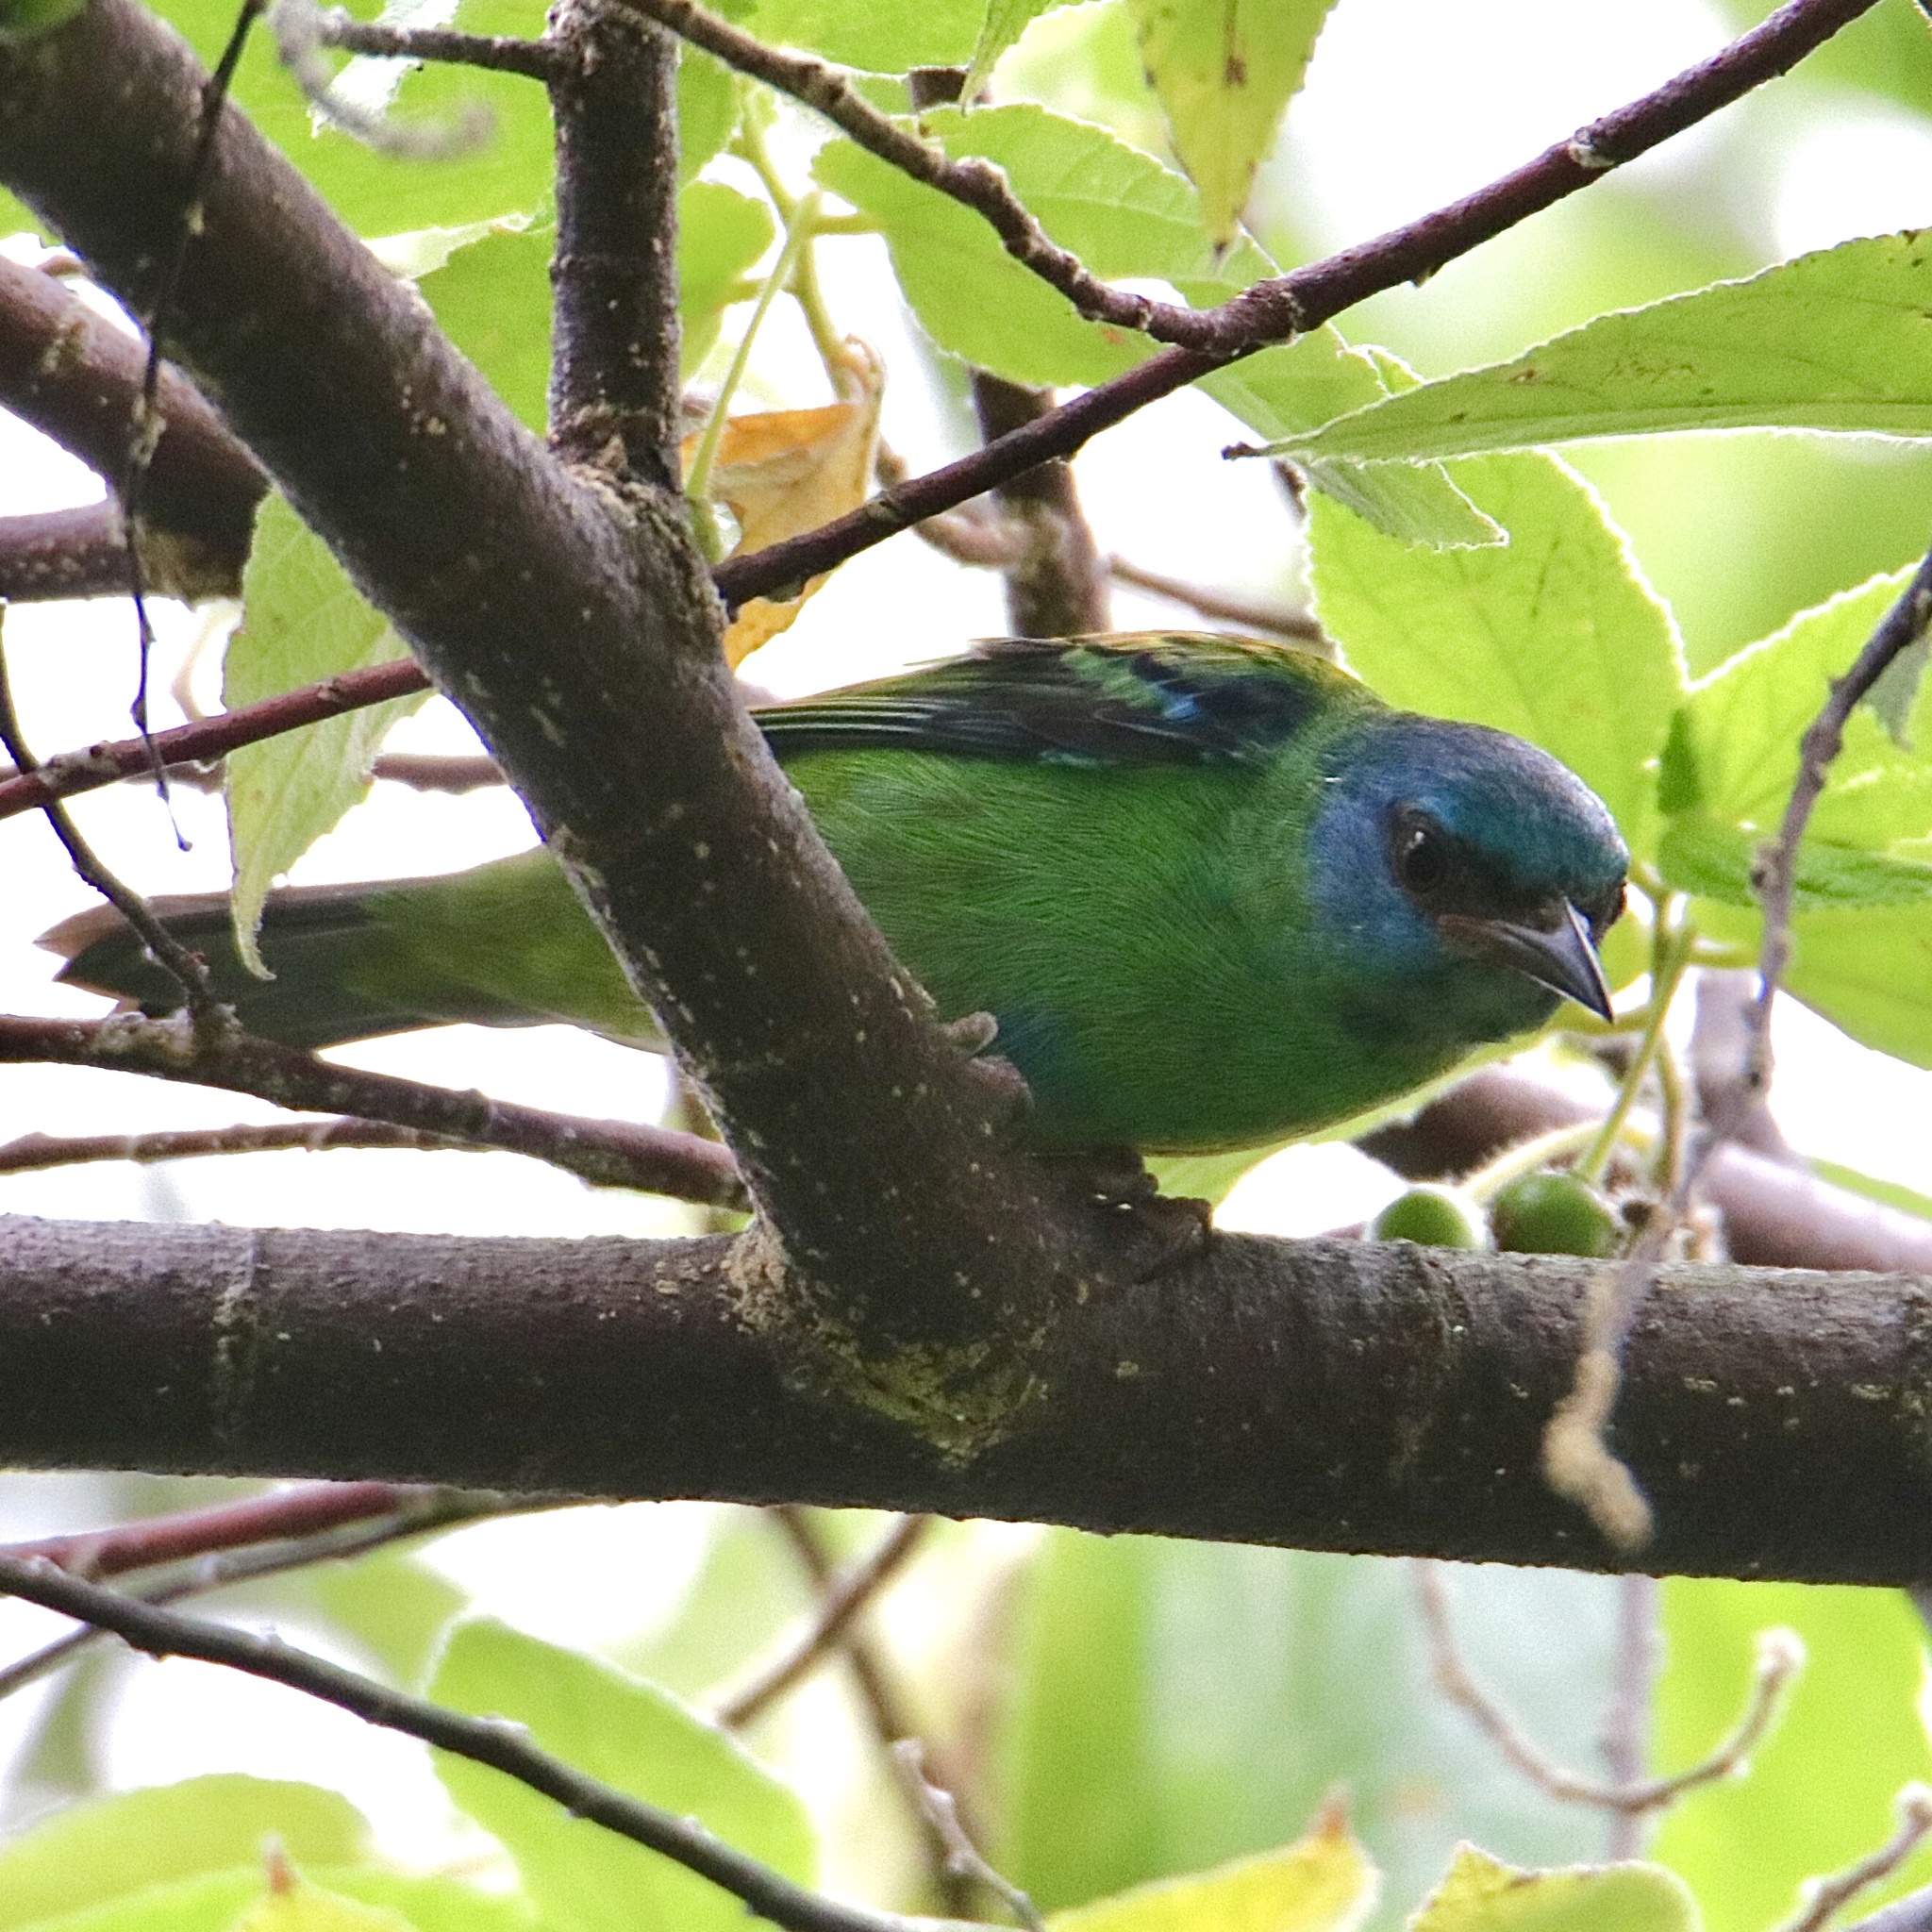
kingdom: Animalia
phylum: Chordata
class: Aves
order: Passeriformes
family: Thraupidae
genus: Dacnis
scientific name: Dacnis cayana
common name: Blue dacnis
